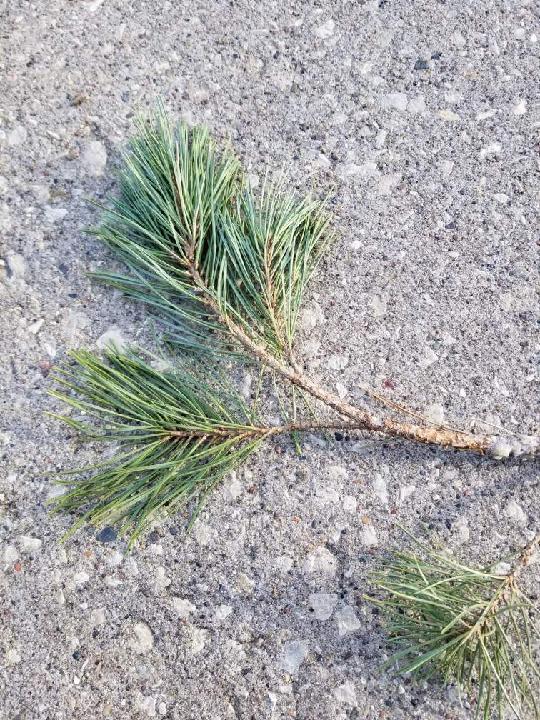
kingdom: Plantae
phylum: Tracheophyta
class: Pinopsida
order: Pinales
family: Pinaceae
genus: Pinus
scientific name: Pinus resinosa
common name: Norway pine
